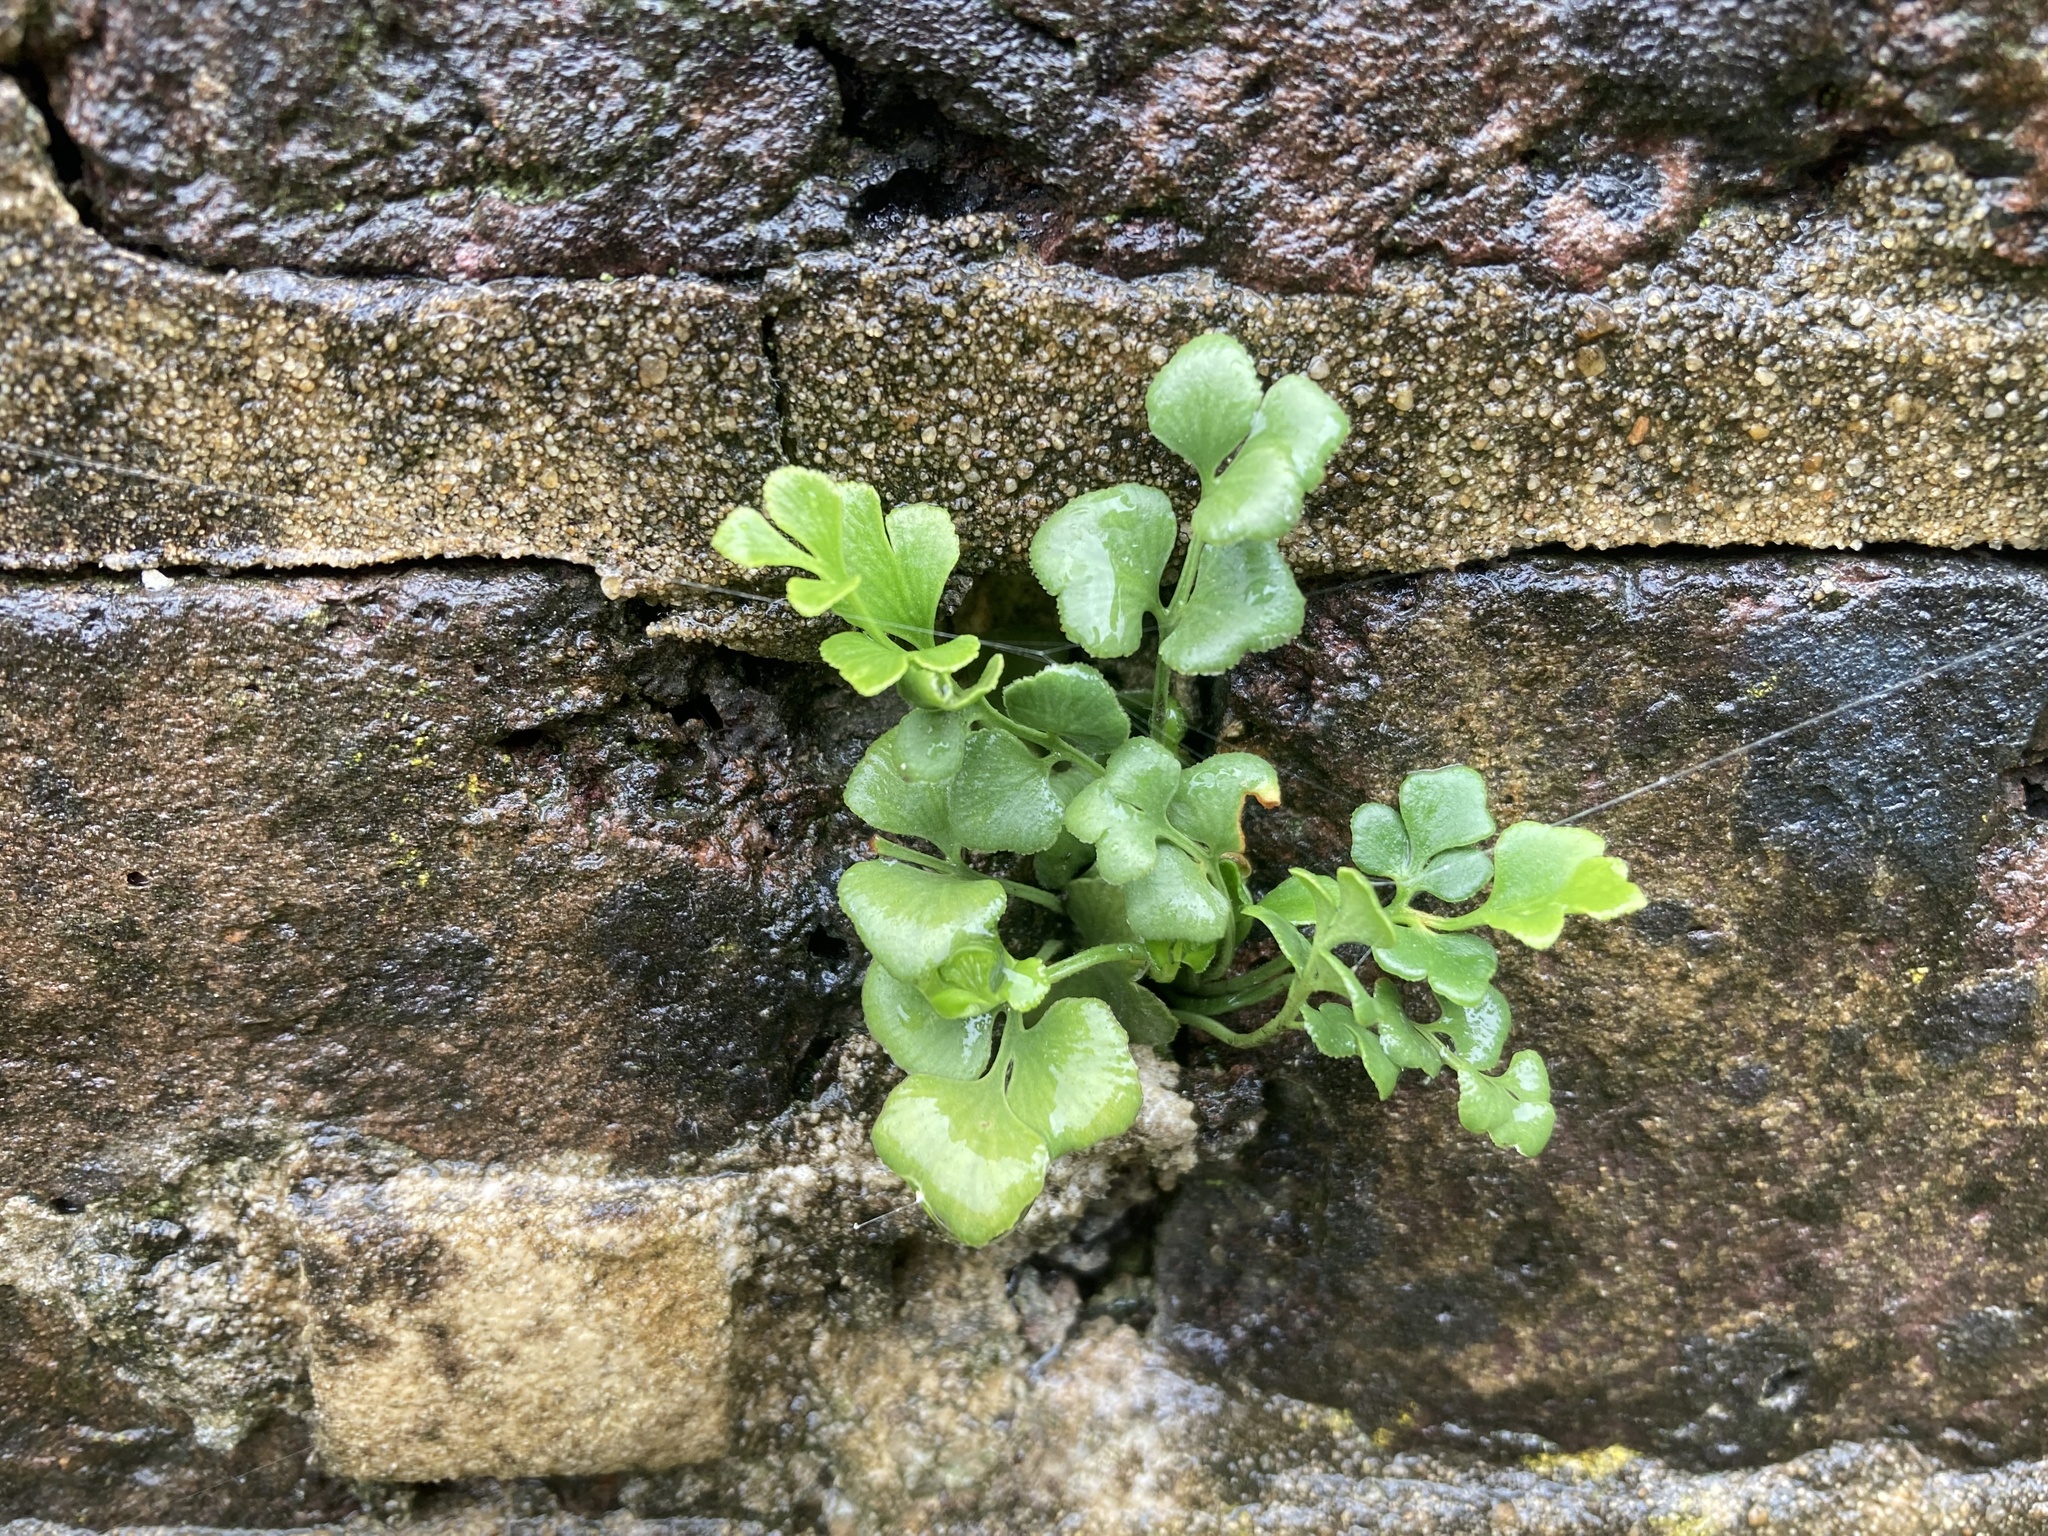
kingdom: Plantae
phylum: Tracheophyta
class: Polypodiopsida
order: Polypodiales
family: Aspleniaceae
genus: Asplenium
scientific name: Asplenium ruta-muraria
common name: Wall-rue
